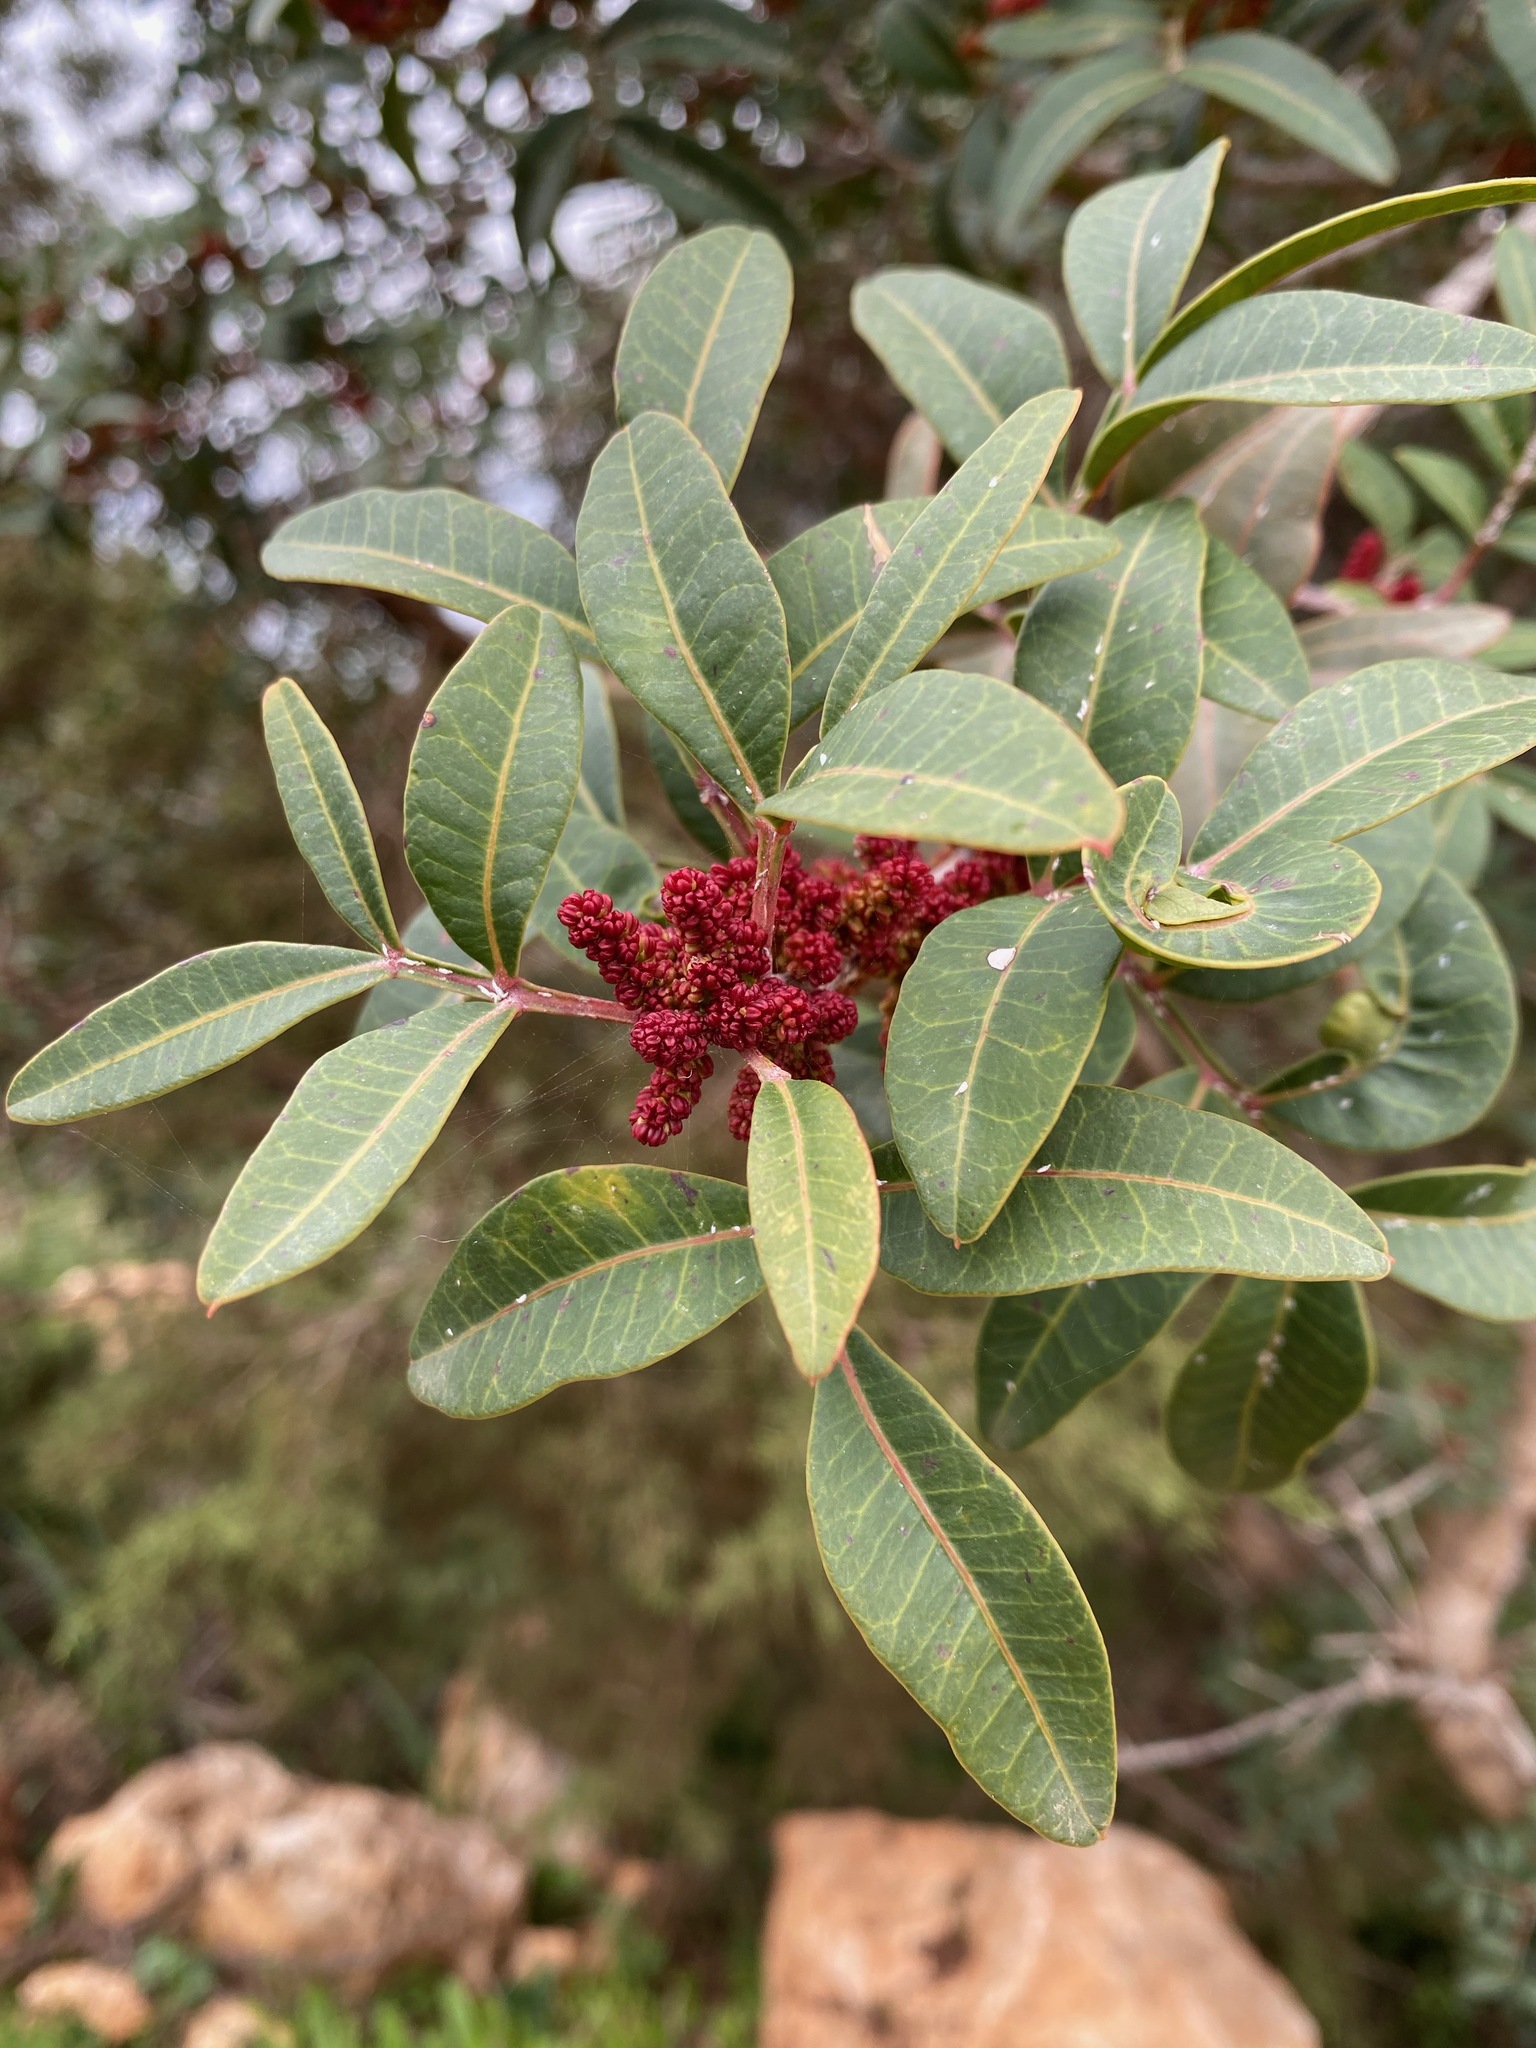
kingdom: Plantae
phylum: Tracheophyta
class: Magnoliopsida
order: Sapindales
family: Anacardiaceae
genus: Pistacia
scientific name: Pistacia lentiscus
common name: Lentisk
